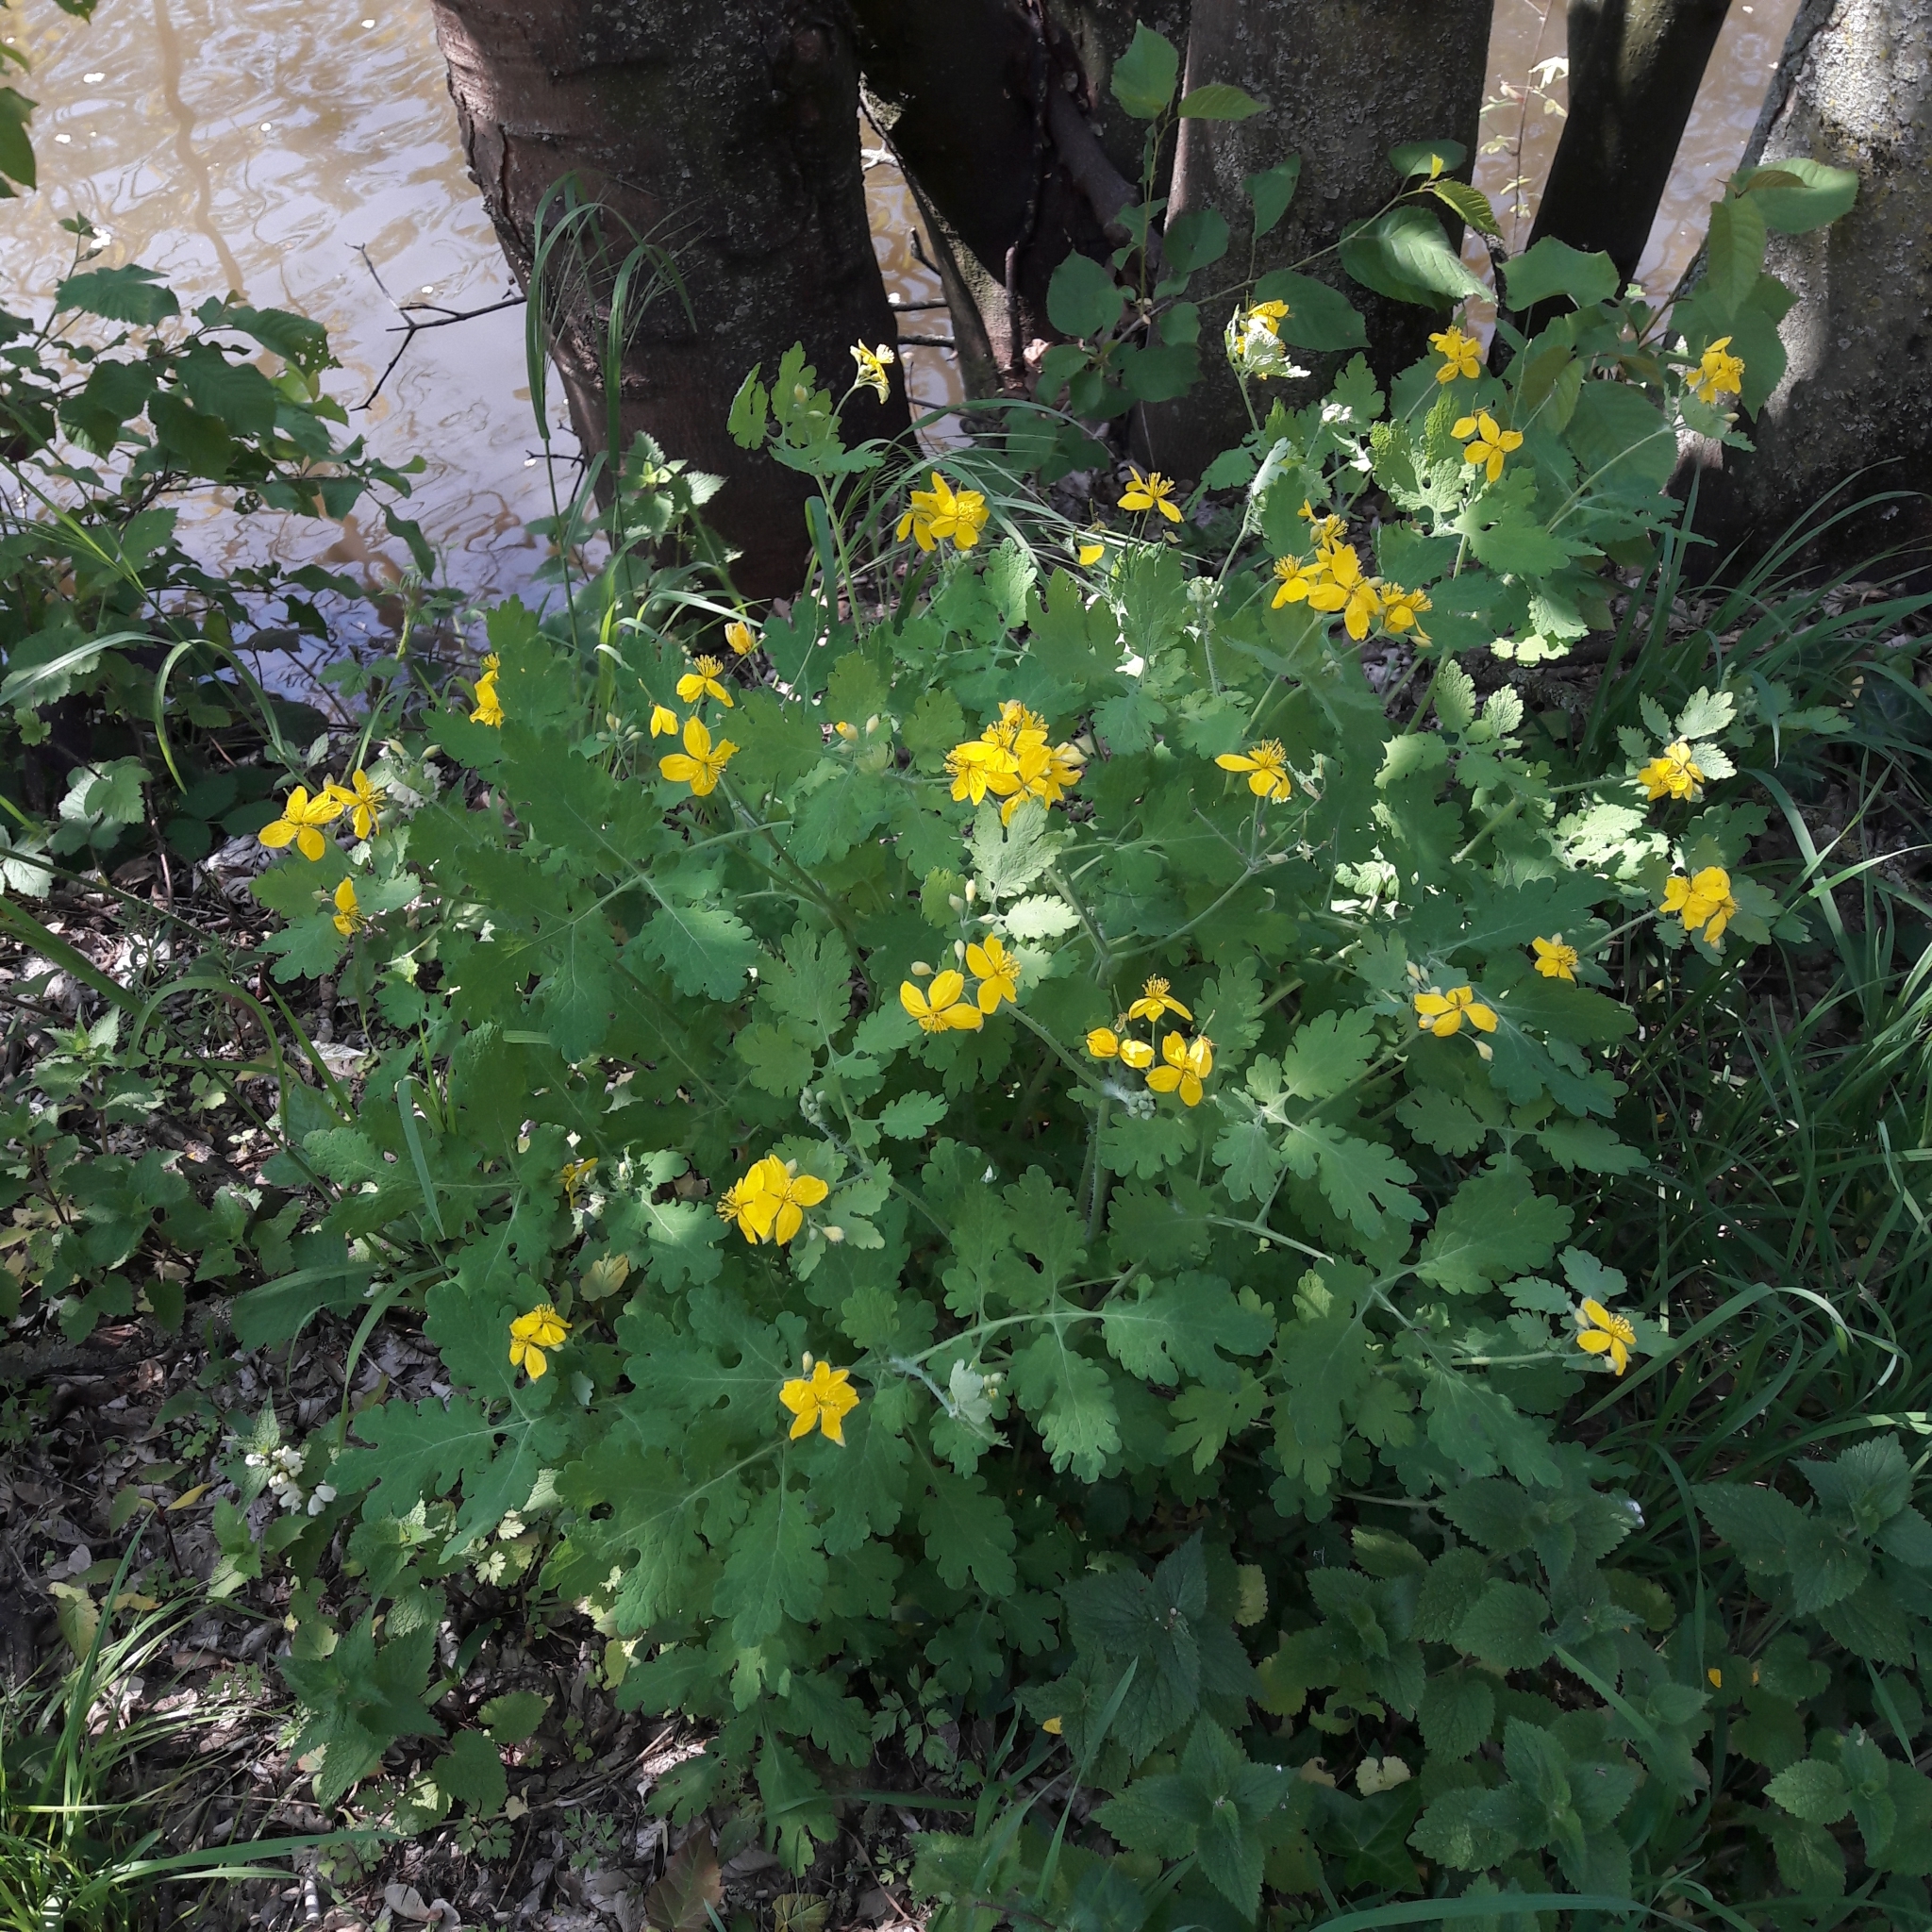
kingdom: Plantae
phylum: Tracheophyta
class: Magnoliopsida
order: Ranunculales
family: Papaveraceae
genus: Chelidonium
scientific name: Chelidonium majus
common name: Greater celandine
